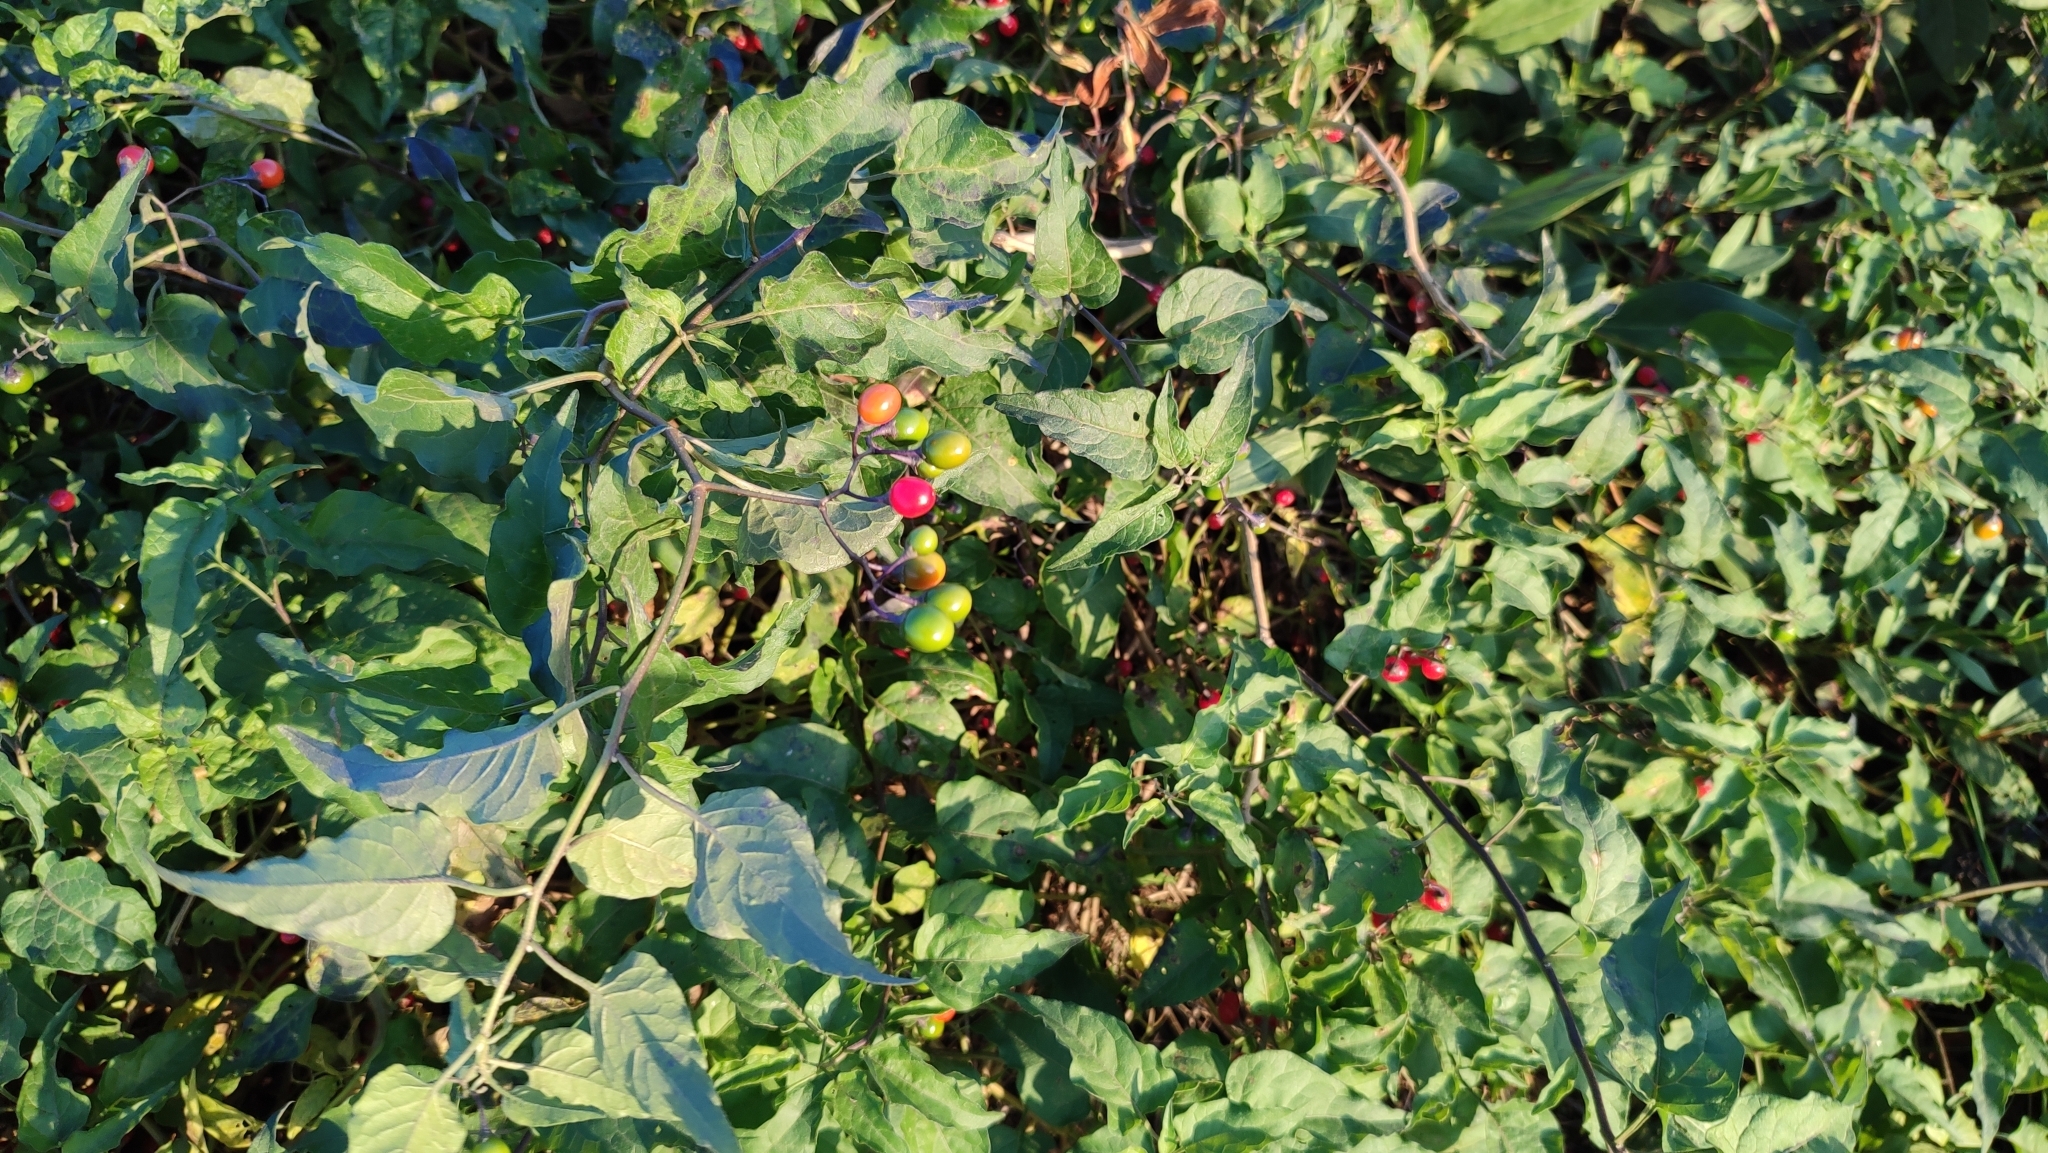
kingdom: Plantae
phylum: Tracheophyta
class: Magnoliopsida
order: Solanales
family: Solanaceae
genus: Solanum
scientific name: Solanum dulcamara
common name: Climbing nightshade
